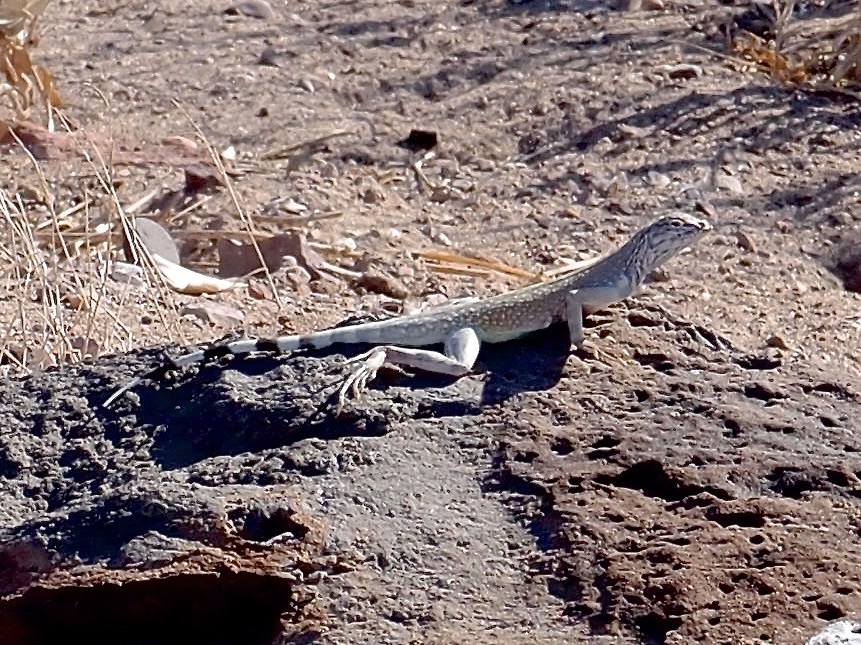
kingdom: Animalia
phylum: Chordata
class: Squamata
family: Phrynosomatidae
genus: Callisaurus
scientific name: Callisaurus draconoides
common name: Zebra-tailed lizard
